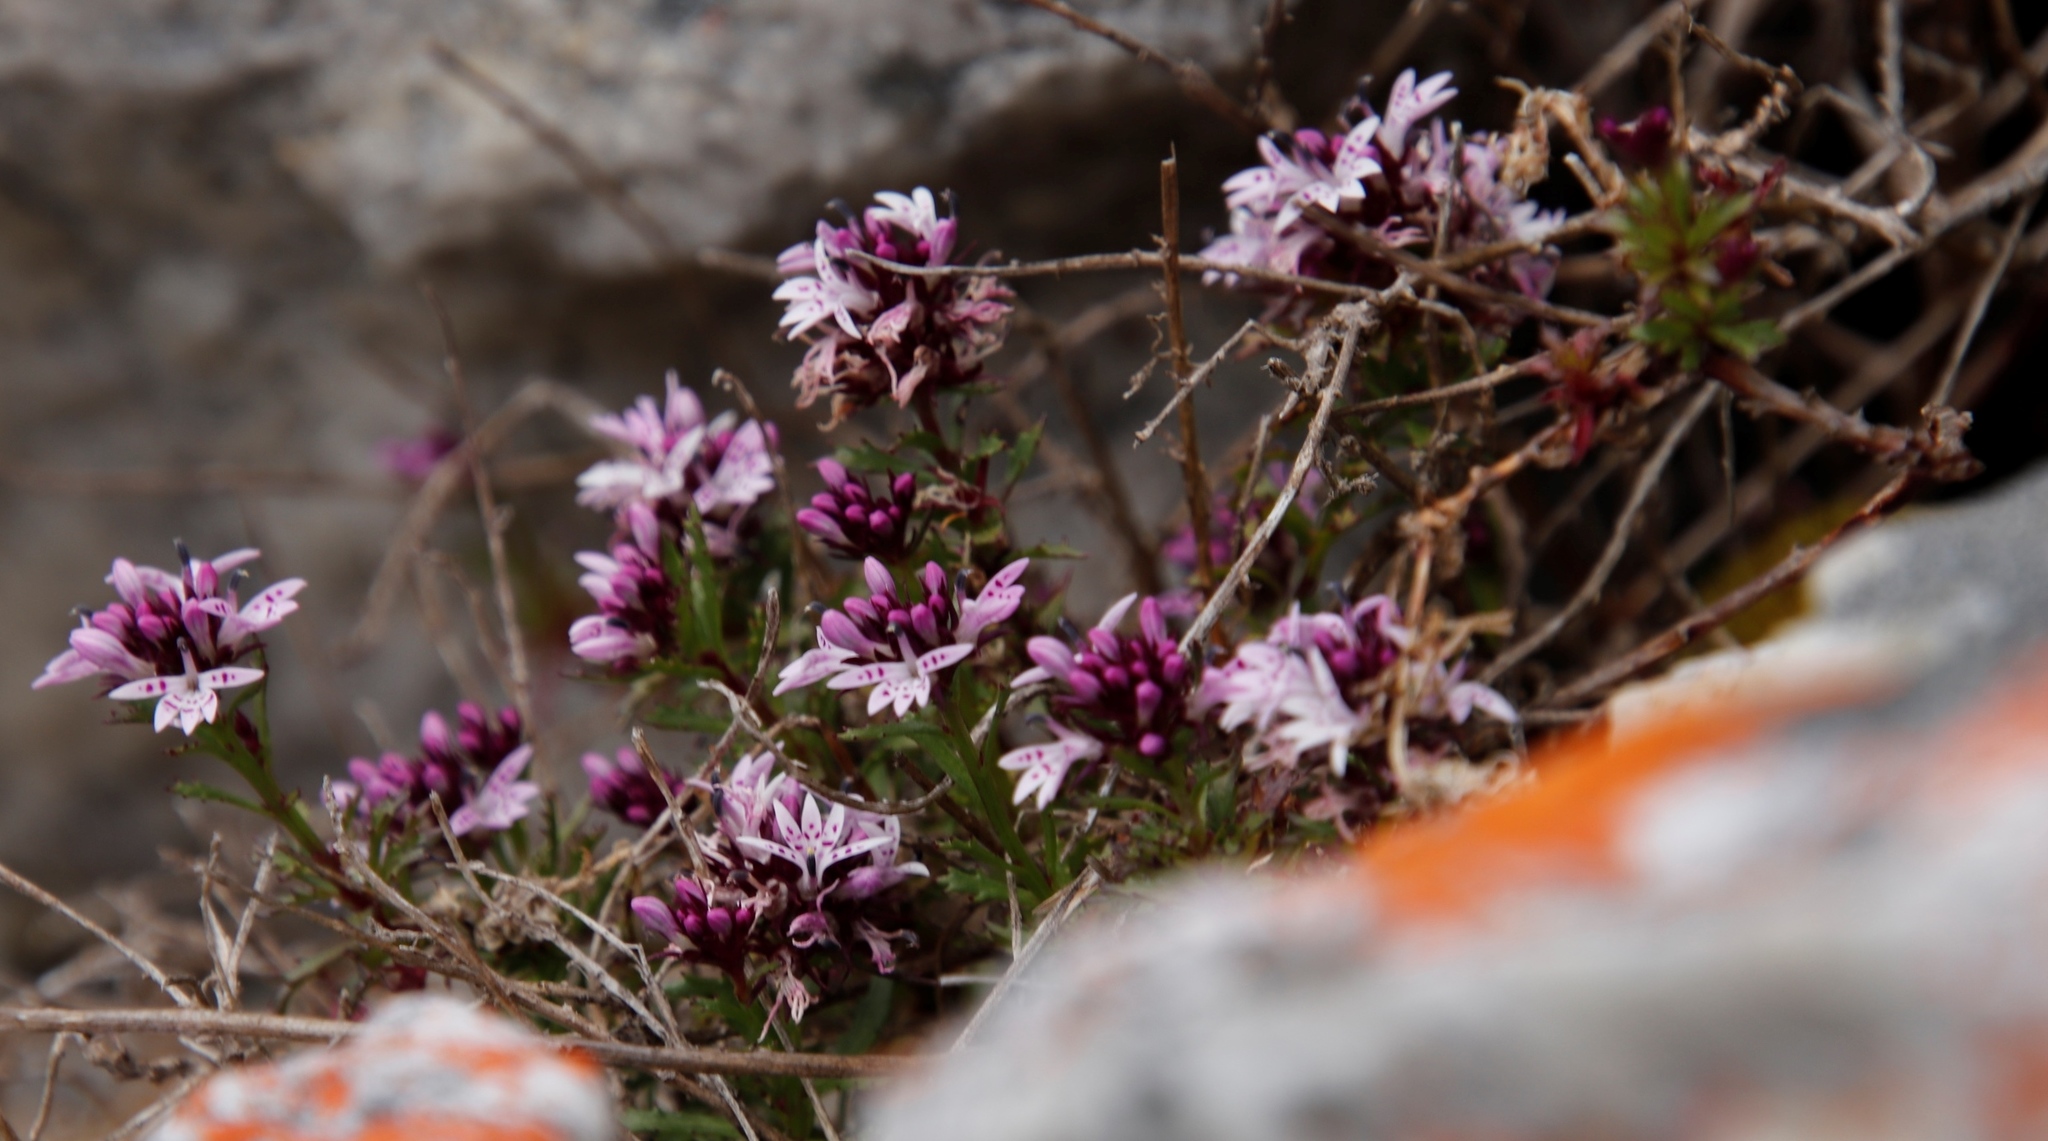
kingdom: Plantae
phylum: Tracheophyta
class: Magnoliopsida
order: Asterales
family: Campanulaceae
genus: Lobelia
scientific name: Lobelia jasionoides
